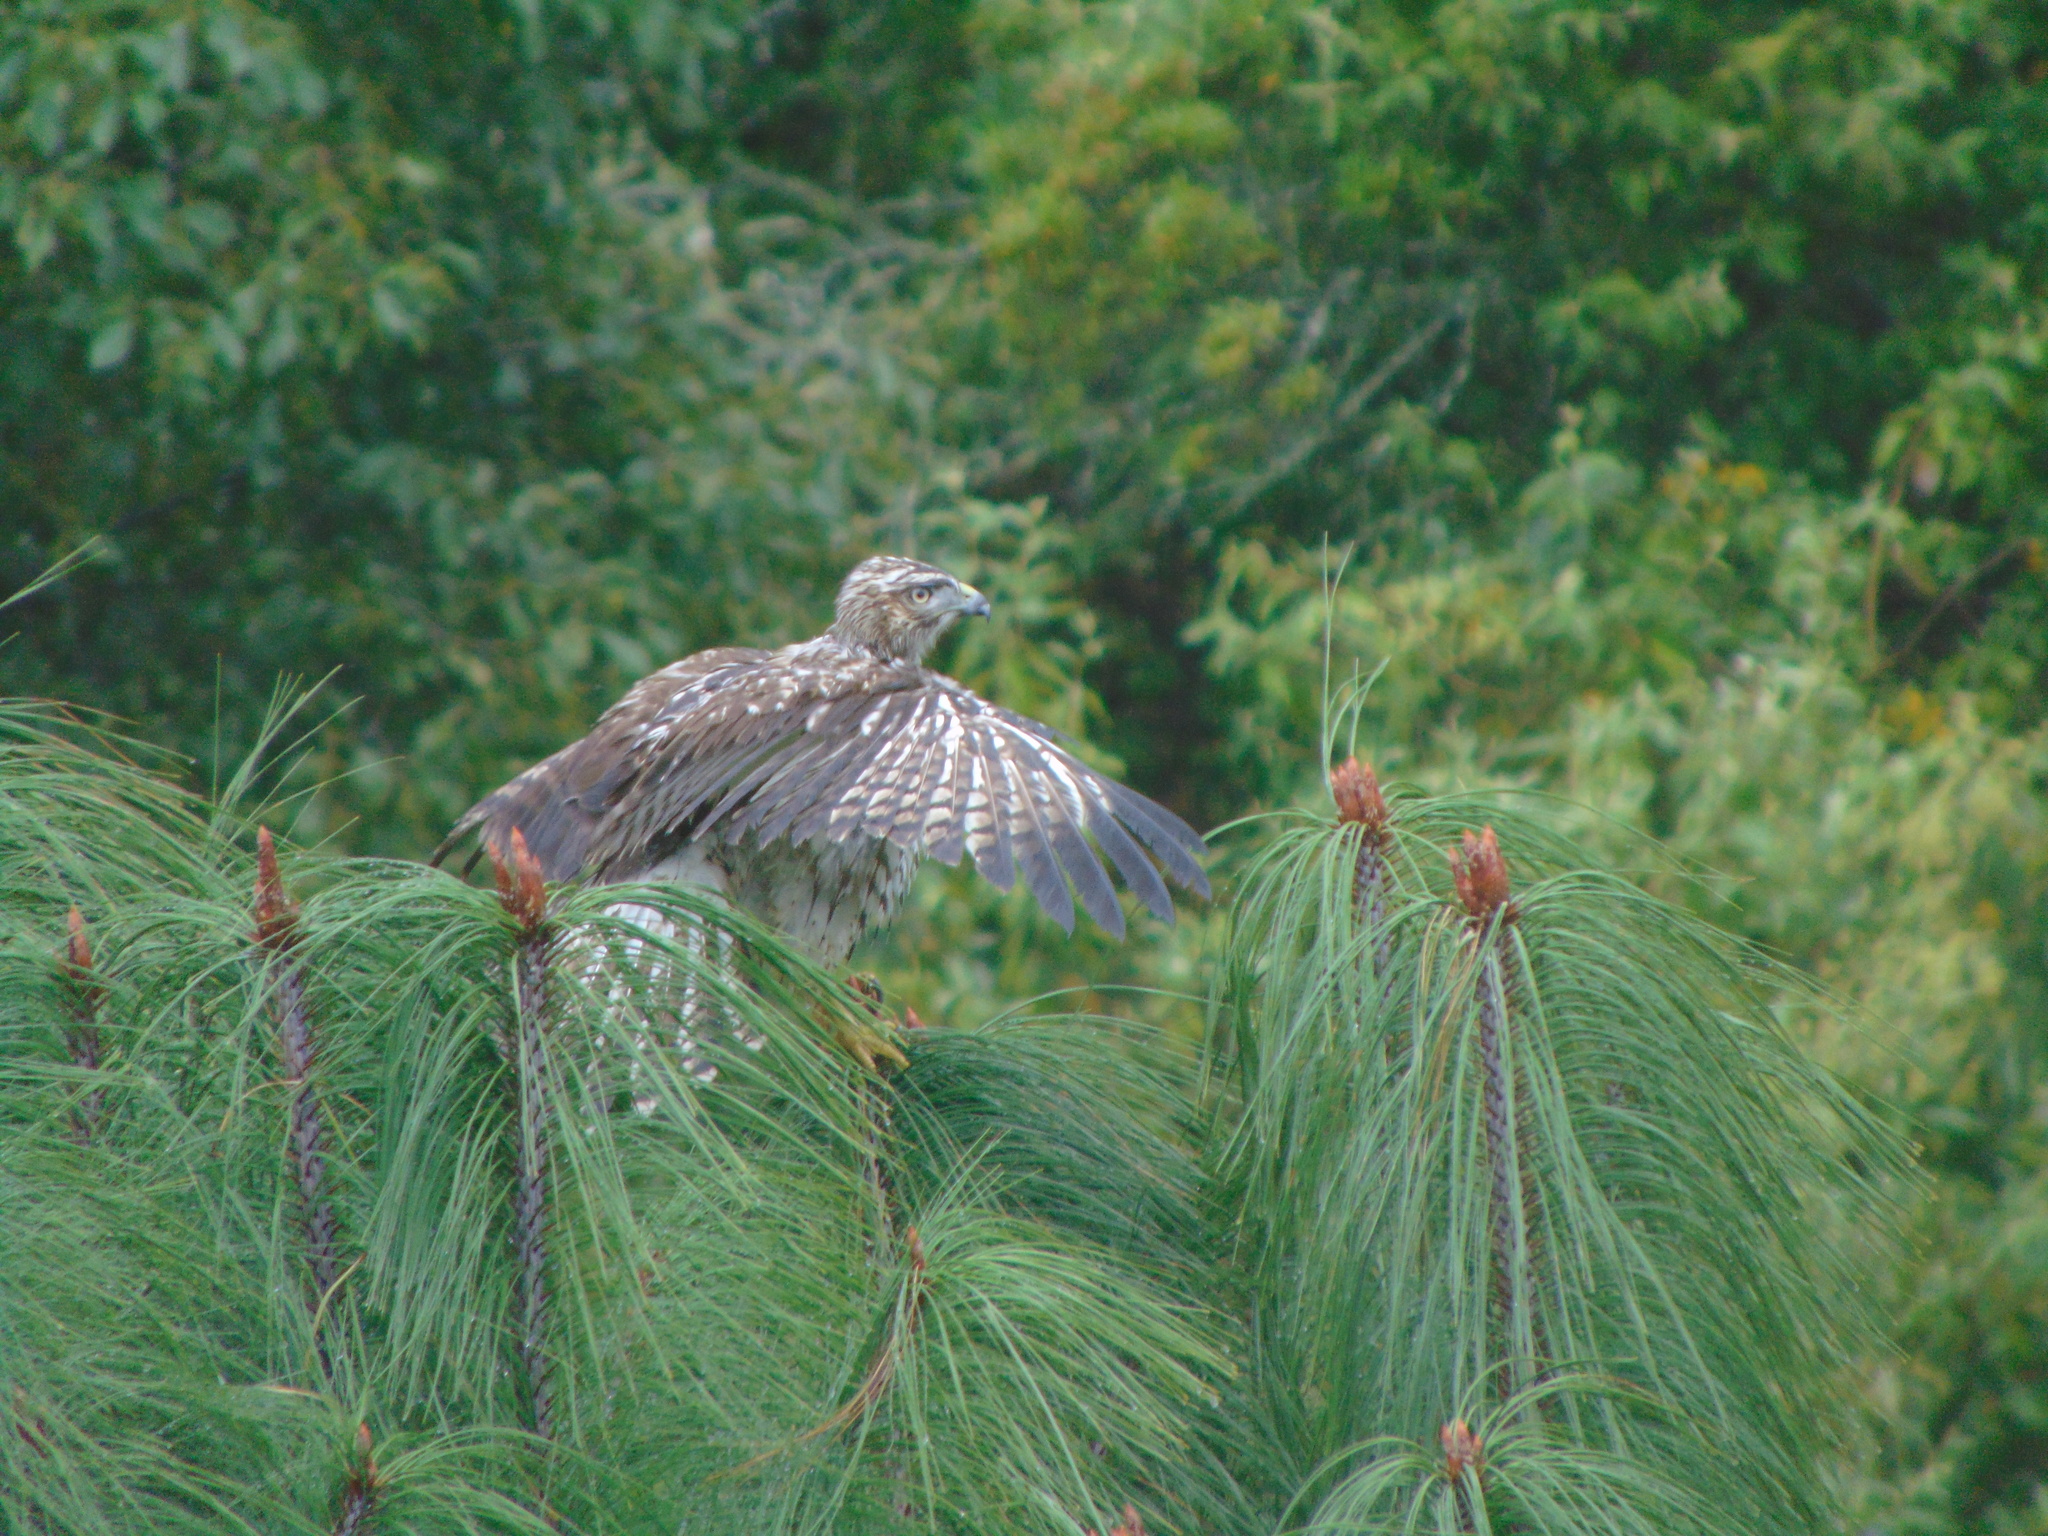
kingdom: Animalia
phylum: Chordata
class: Aves
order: Accipitriformes
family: Accipitridae
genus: Buteo
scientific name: Buteo jamaicensis
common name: Red-tailed hawk
